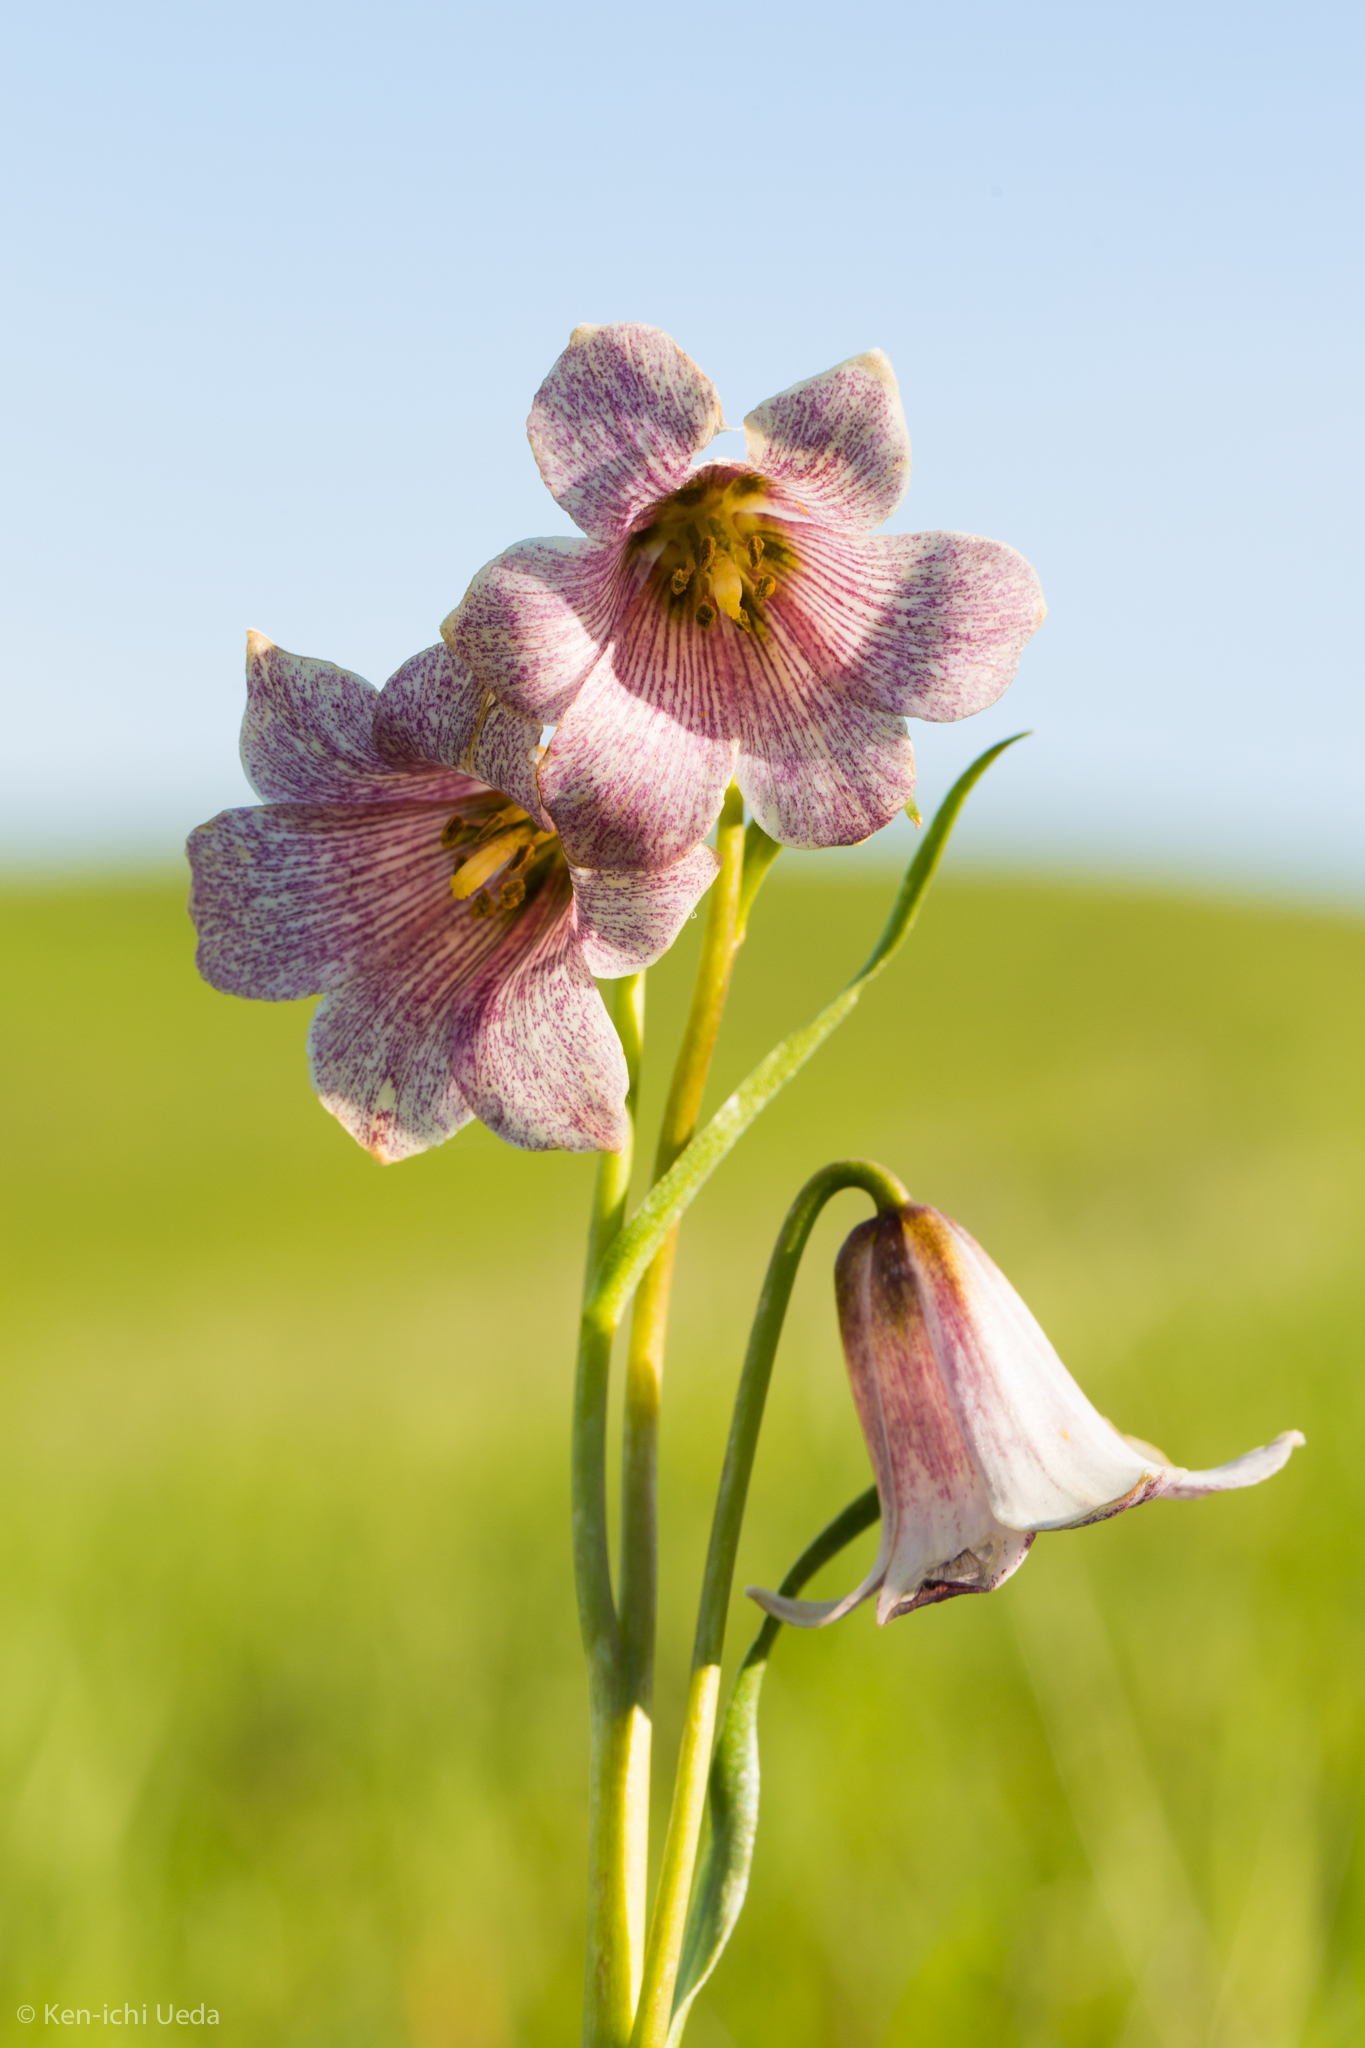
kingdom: Plantae
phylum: Tracheophyta
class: Liliopsida
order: Liliales
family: Liliaceae
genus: Fritillaria
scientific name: Fritillaria striata
